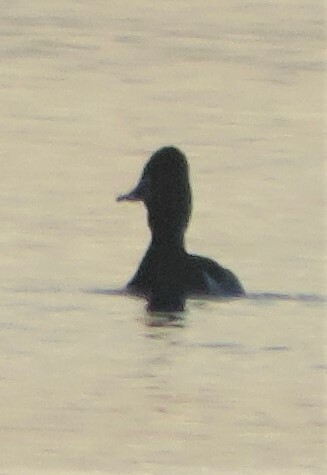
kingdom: Animalia
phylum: Chordata
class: Aves
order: Anseriformes
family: Anatidae
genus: Aythya
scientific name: Aythya collaris
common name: Ring-necked duck
